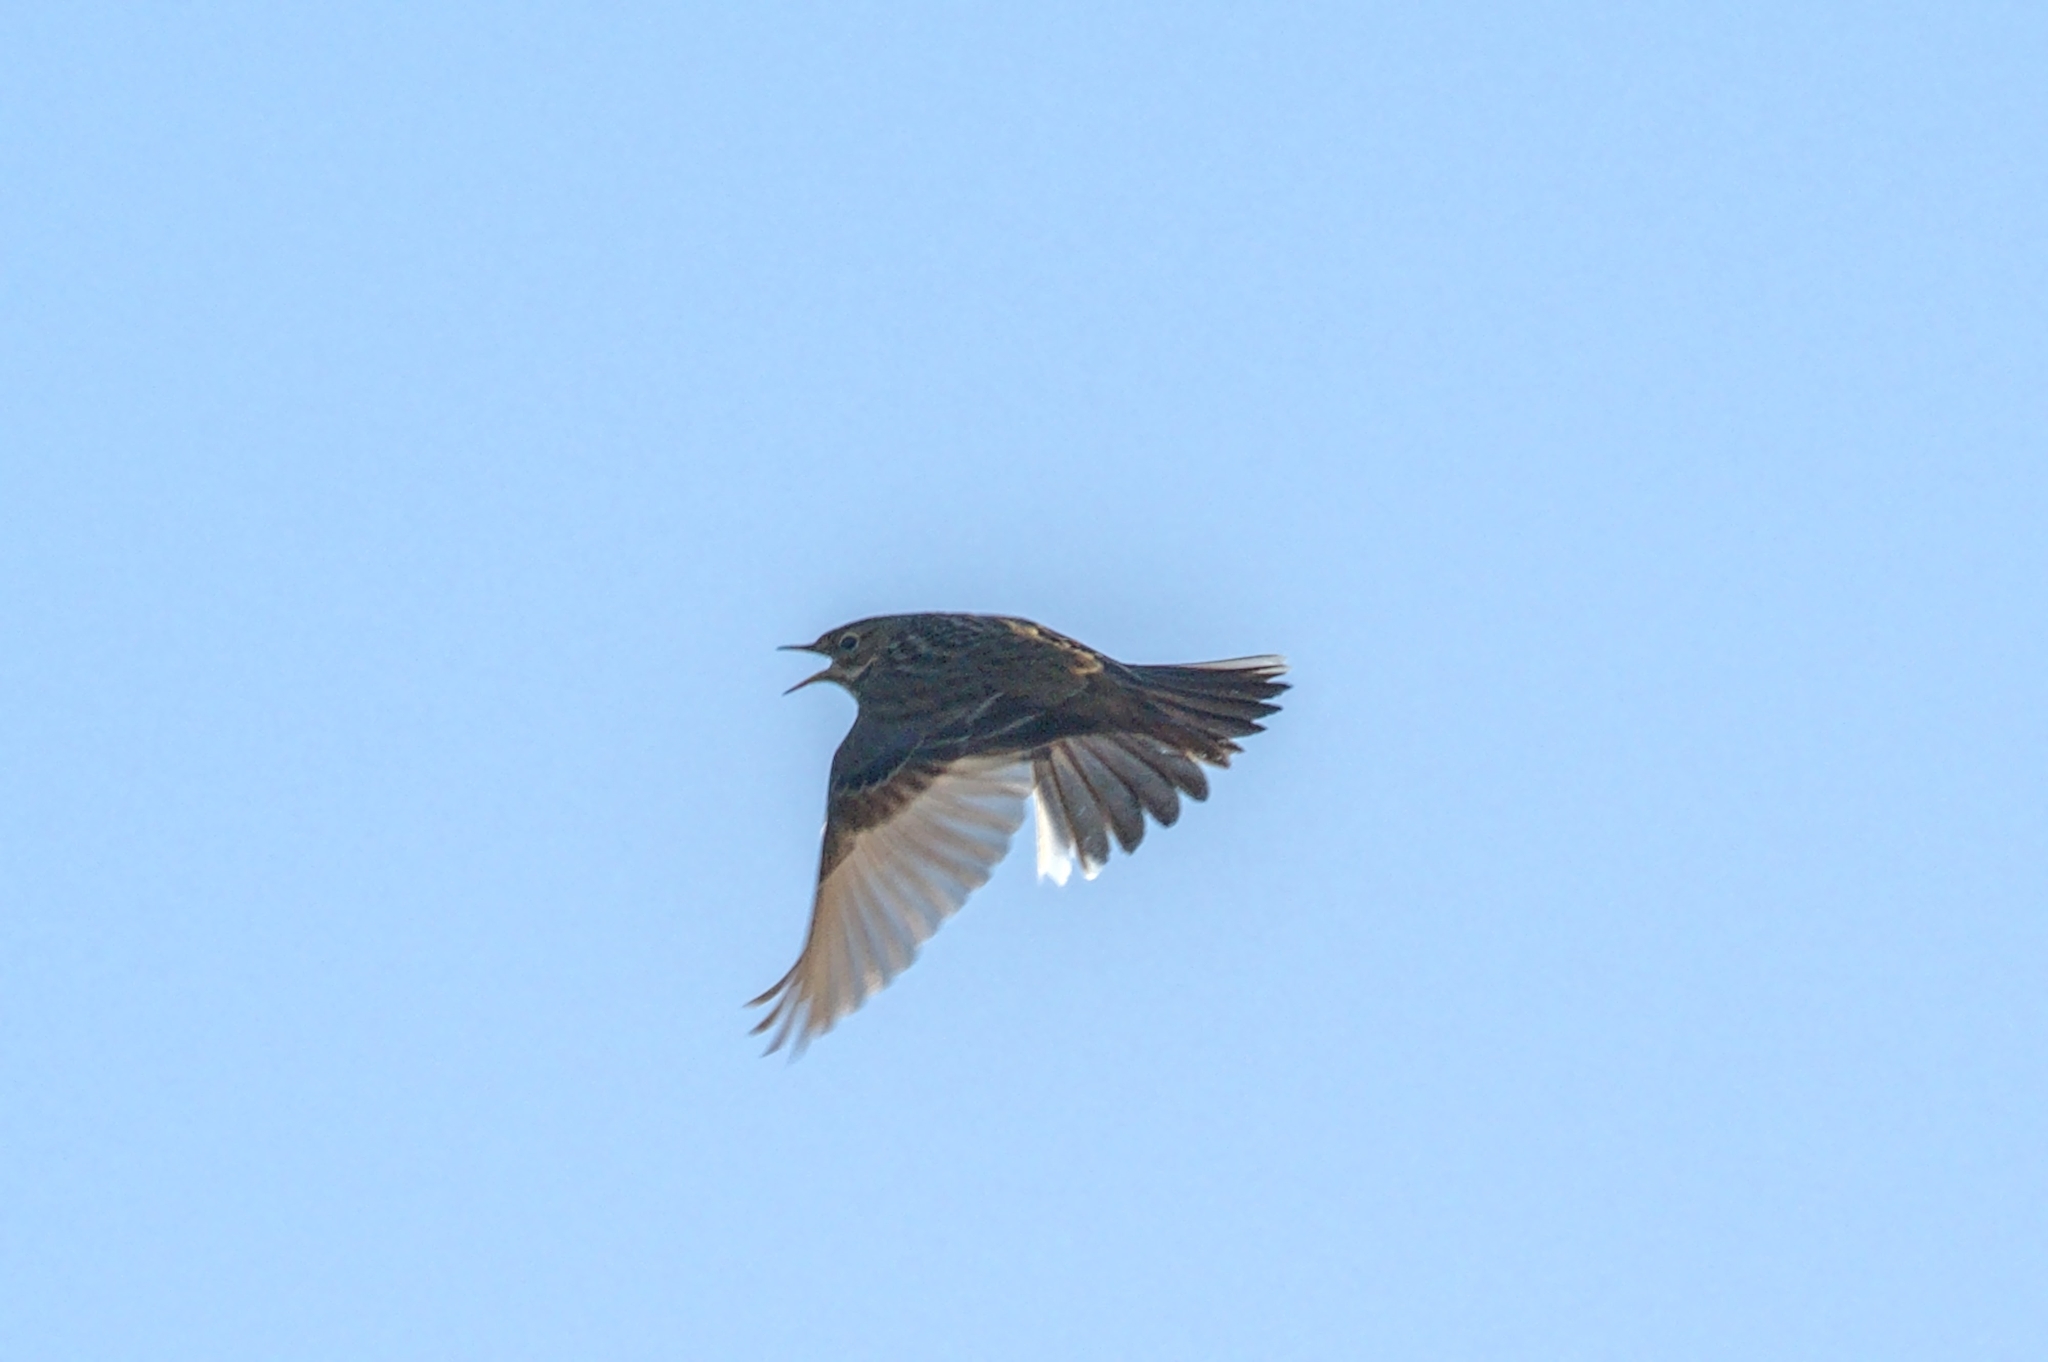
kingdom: Animalia
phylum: Chordata
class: Aves
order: Passeriformes
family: Motacillidae
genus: Anthus
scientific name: Anthus pratensis
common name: Meadow pipit
